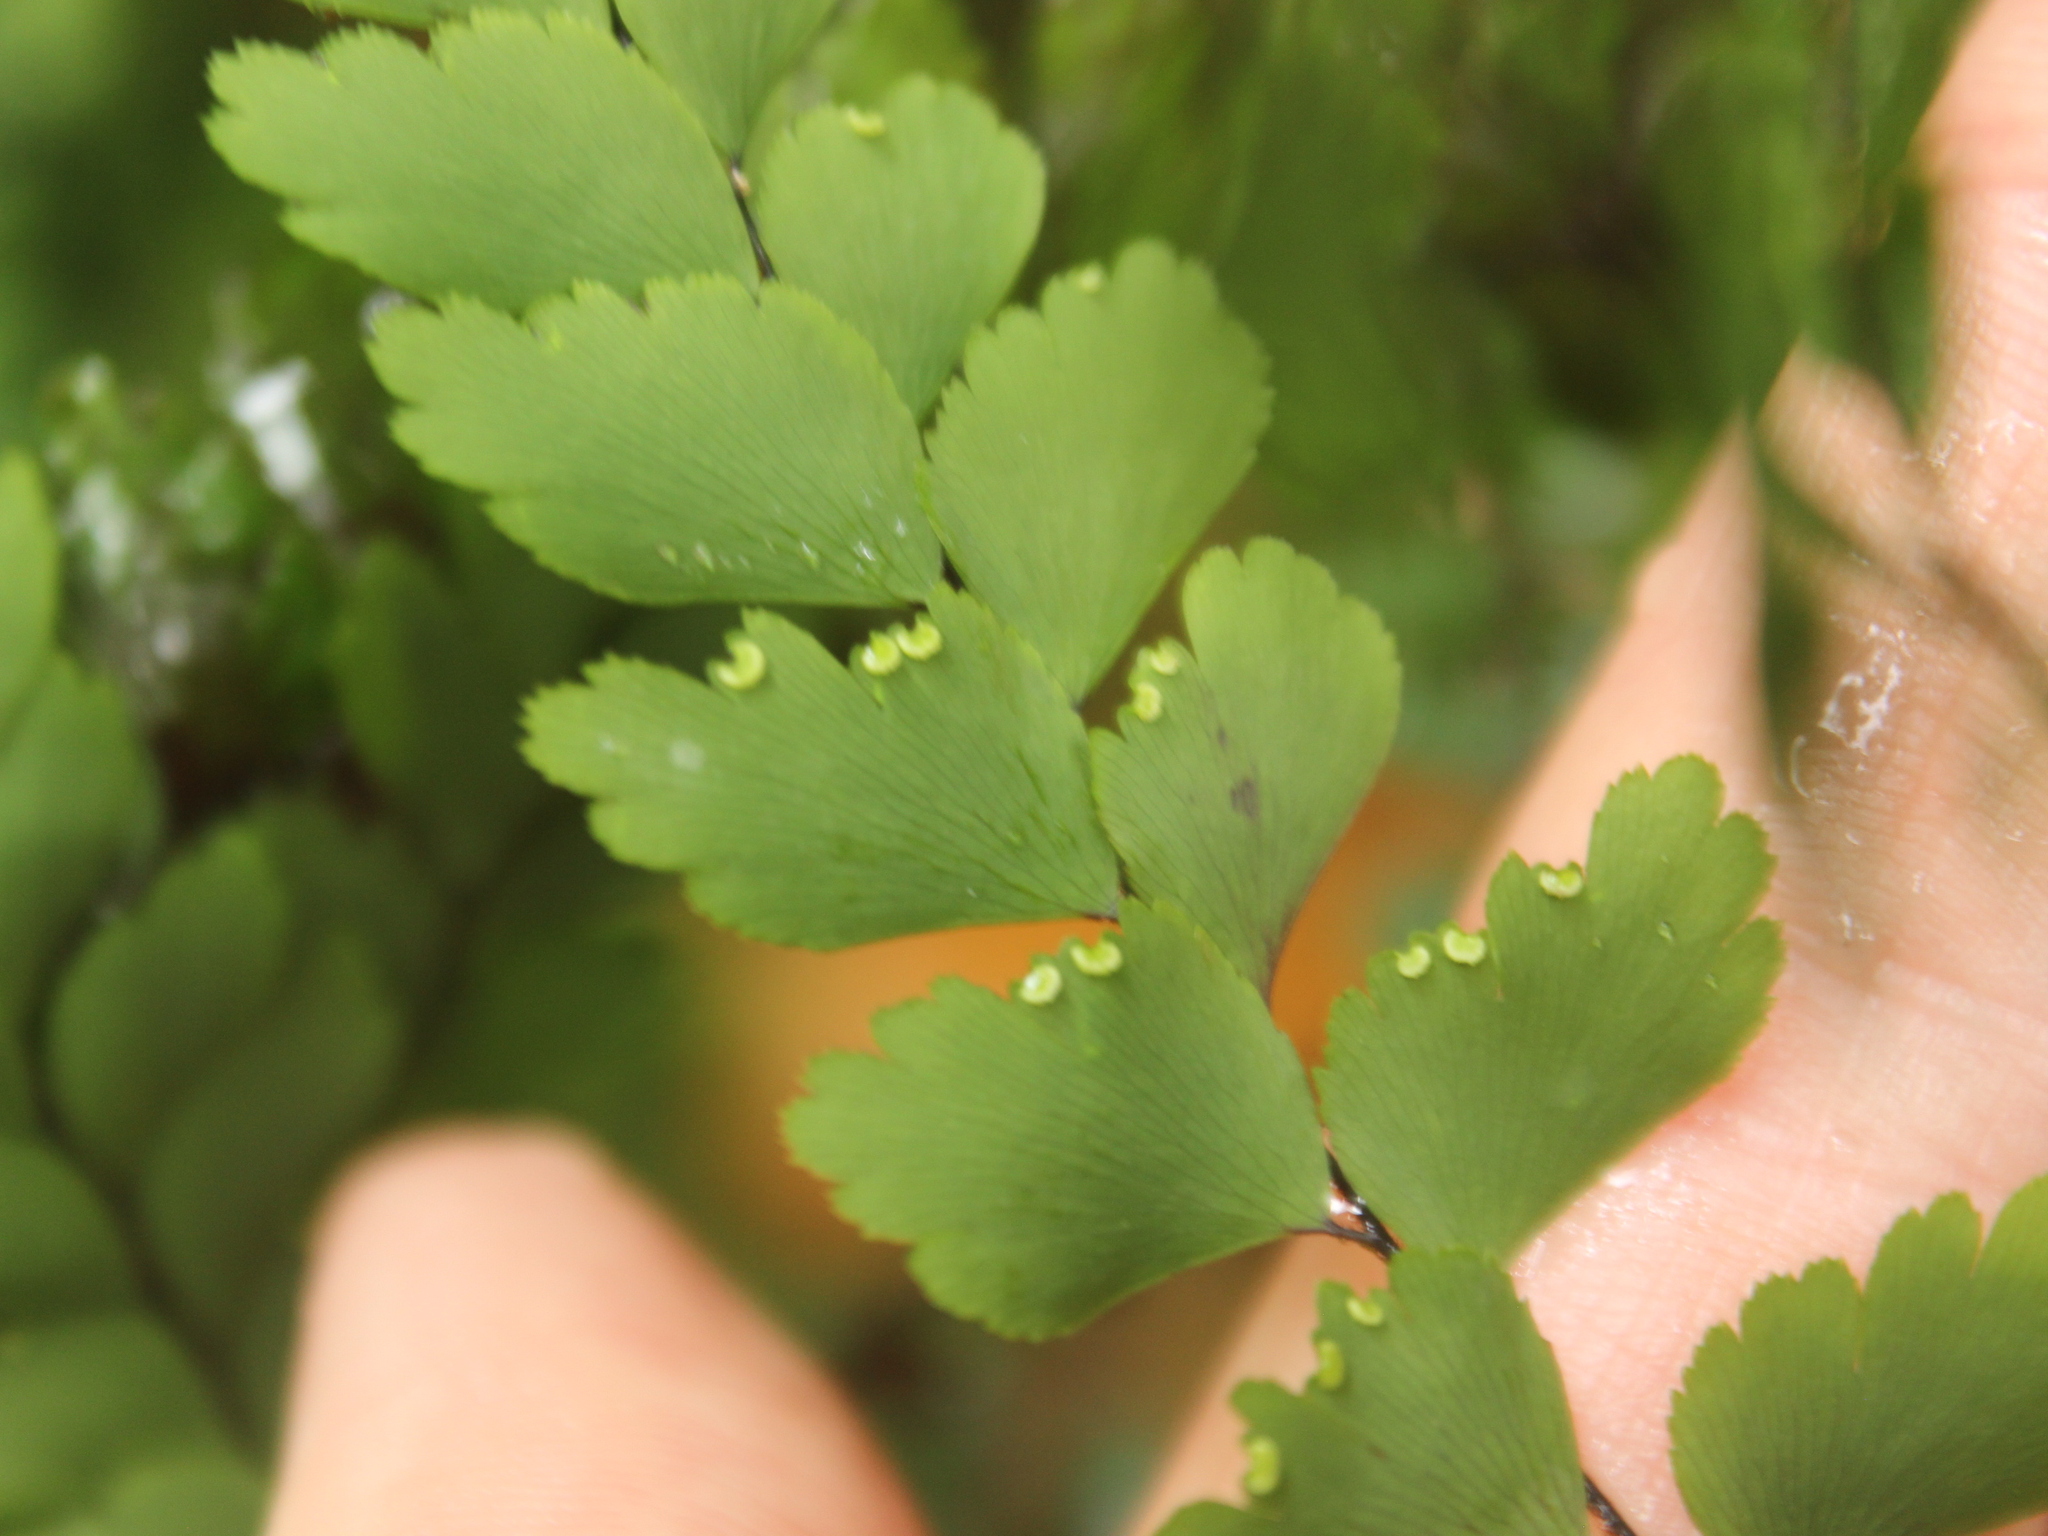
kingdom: Plantae
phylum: Tracheophyta
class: Polypodiopsida
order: Polypodiales
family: Pteridaceae
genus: Adiantum
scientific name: Adiantum formosum
